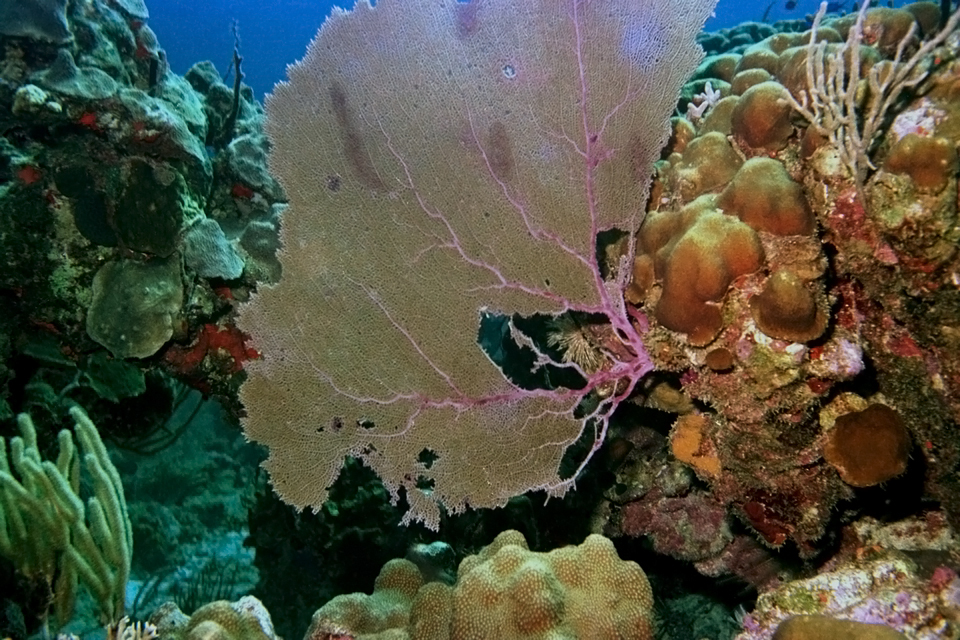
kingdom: Animalia
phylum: Cnidaria
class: Anthozoa
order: Malacalcyonacea
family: Gorgoniidae
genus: Gorgonia
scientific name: Gorgonia ventalina
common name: Common sea fan
